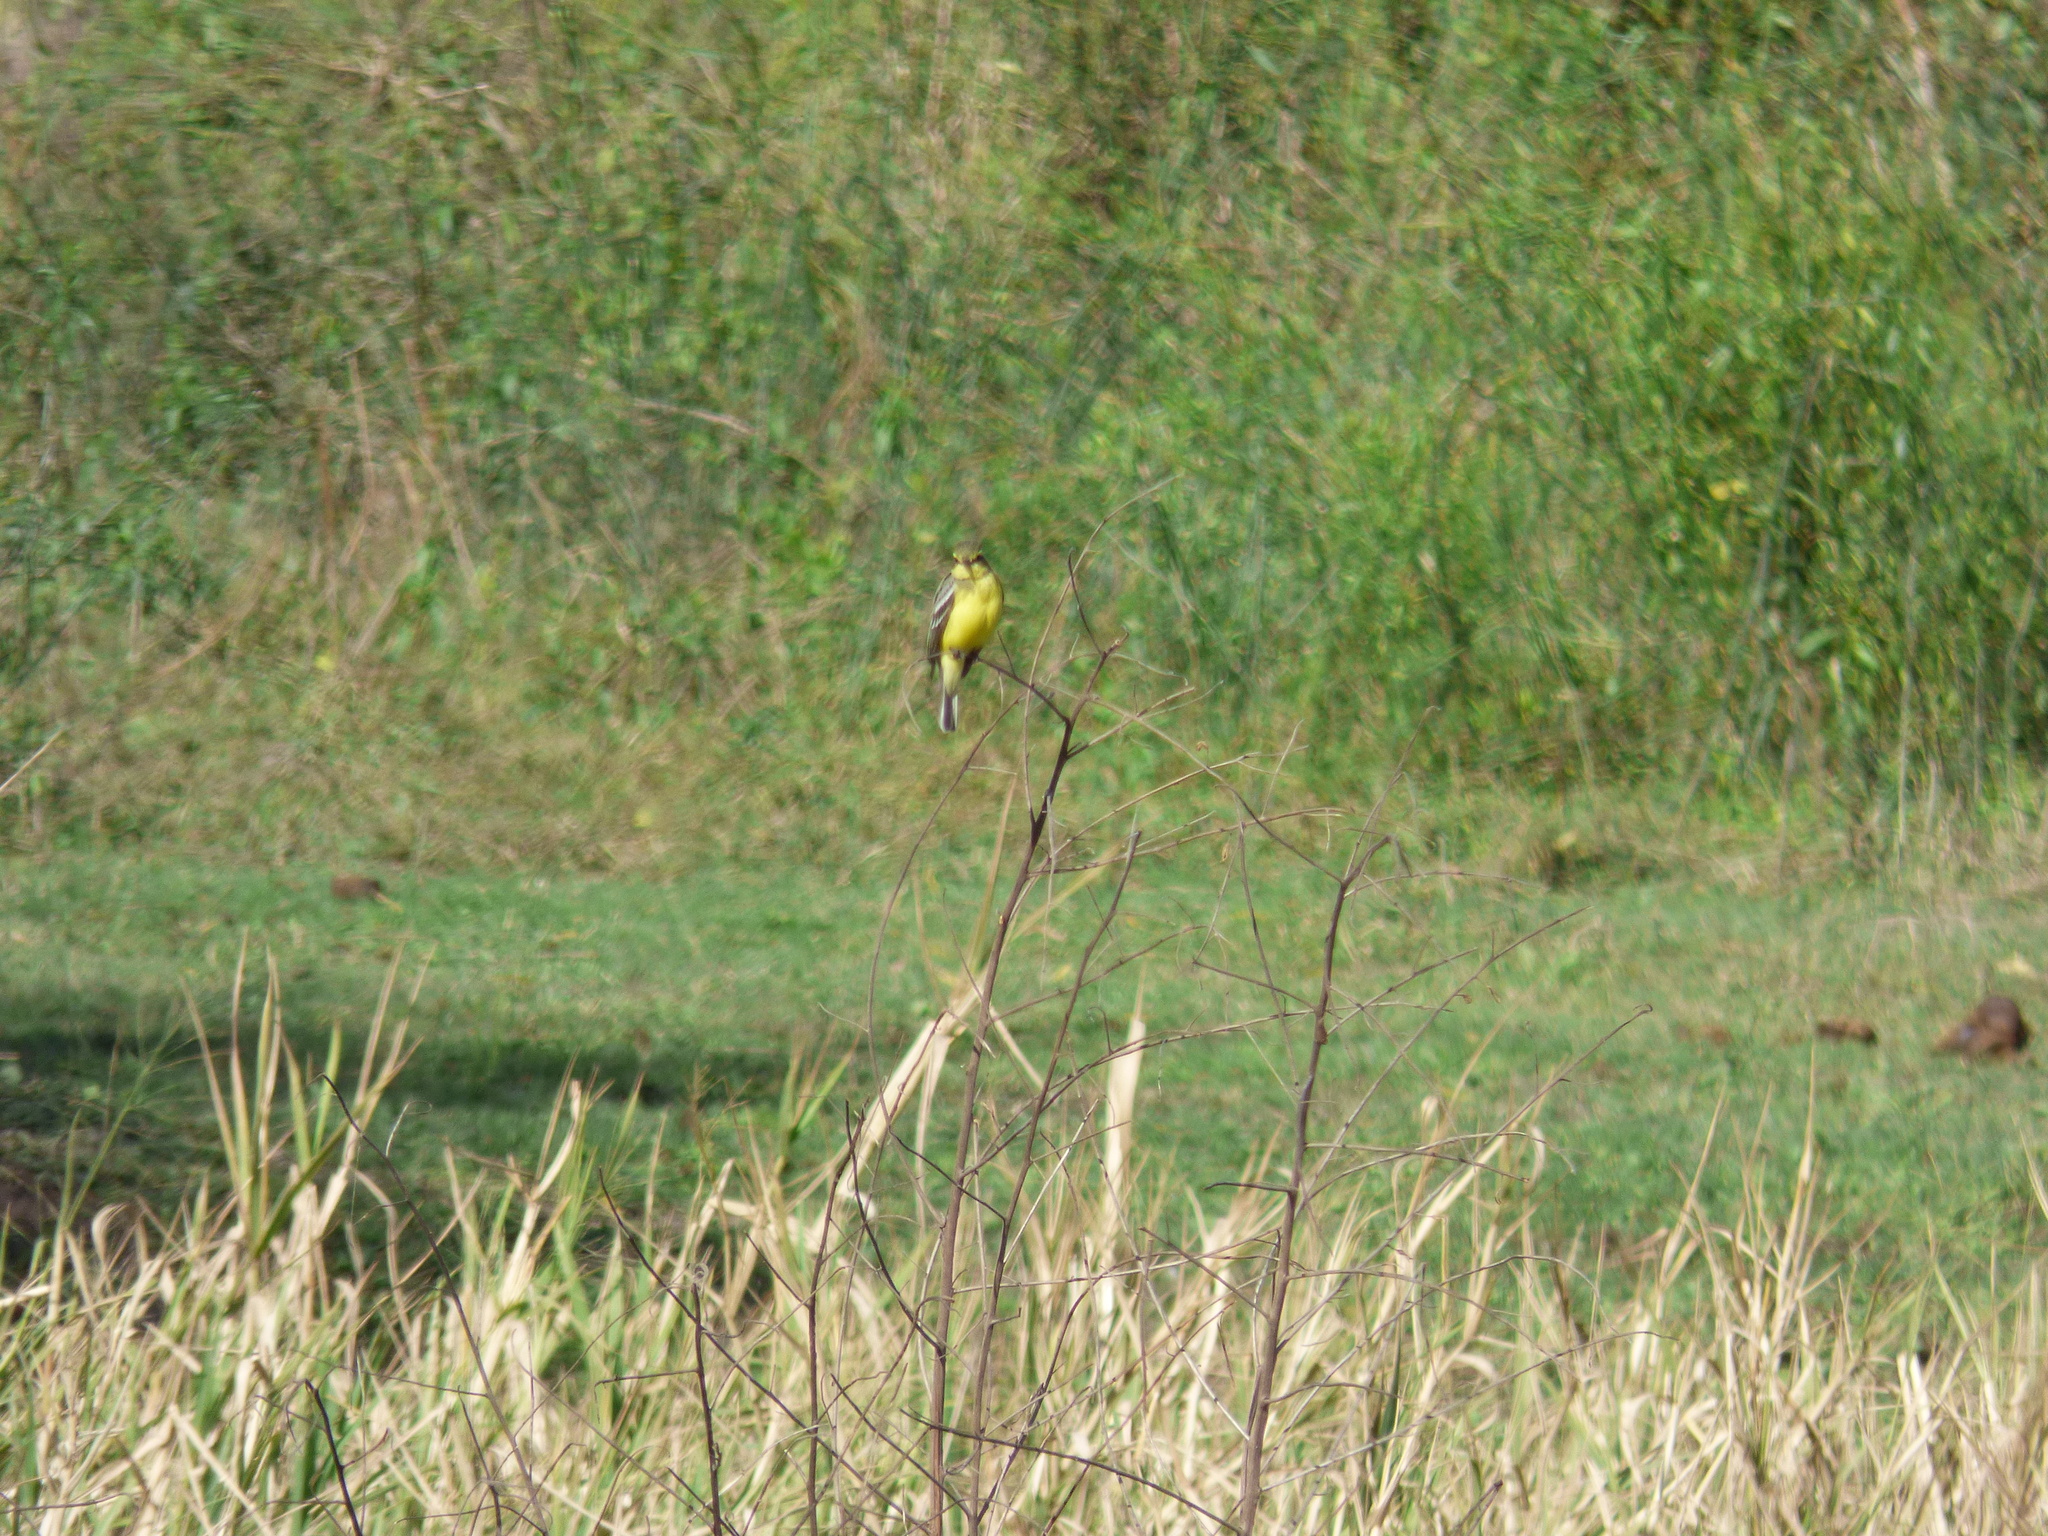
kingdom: Animalia
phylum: Chordata
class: Aves
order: Passeriformes
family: Tyrannidae
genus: Satrapa
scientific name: Satrapa icterophrys
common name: Yellow-browed tyrant
